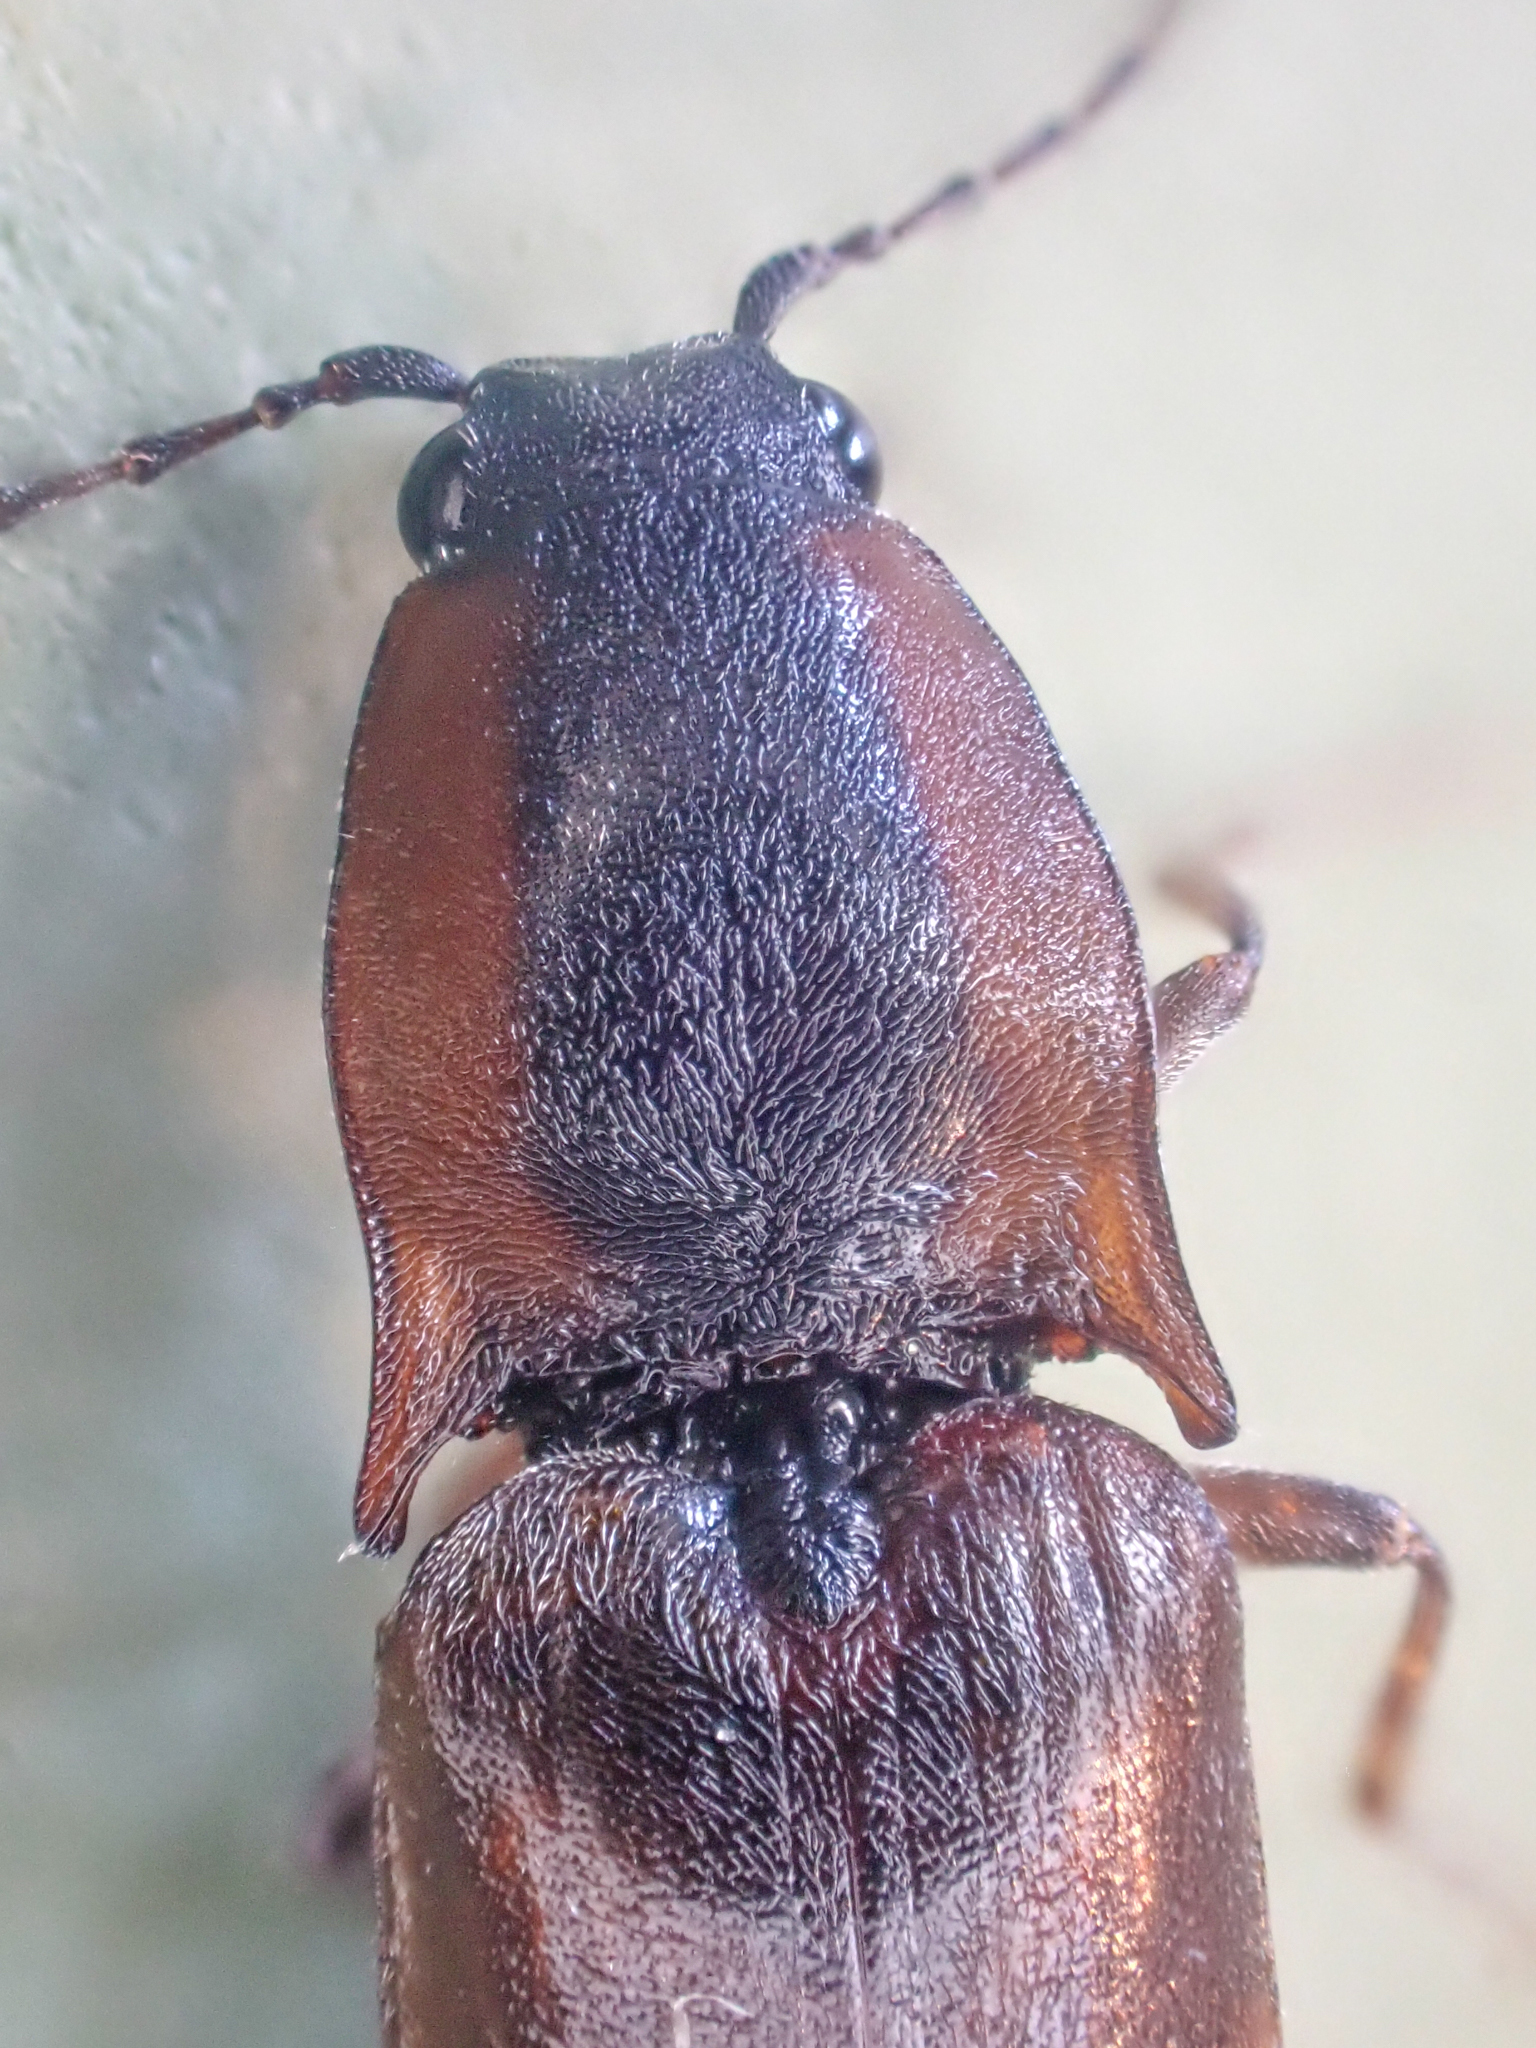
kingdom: Animalia
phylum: Arthropoda
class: Insecta
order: Coleoptera
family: Elateridae
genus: Acteniceromorphus
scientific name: Acteniceromorphus volitans
